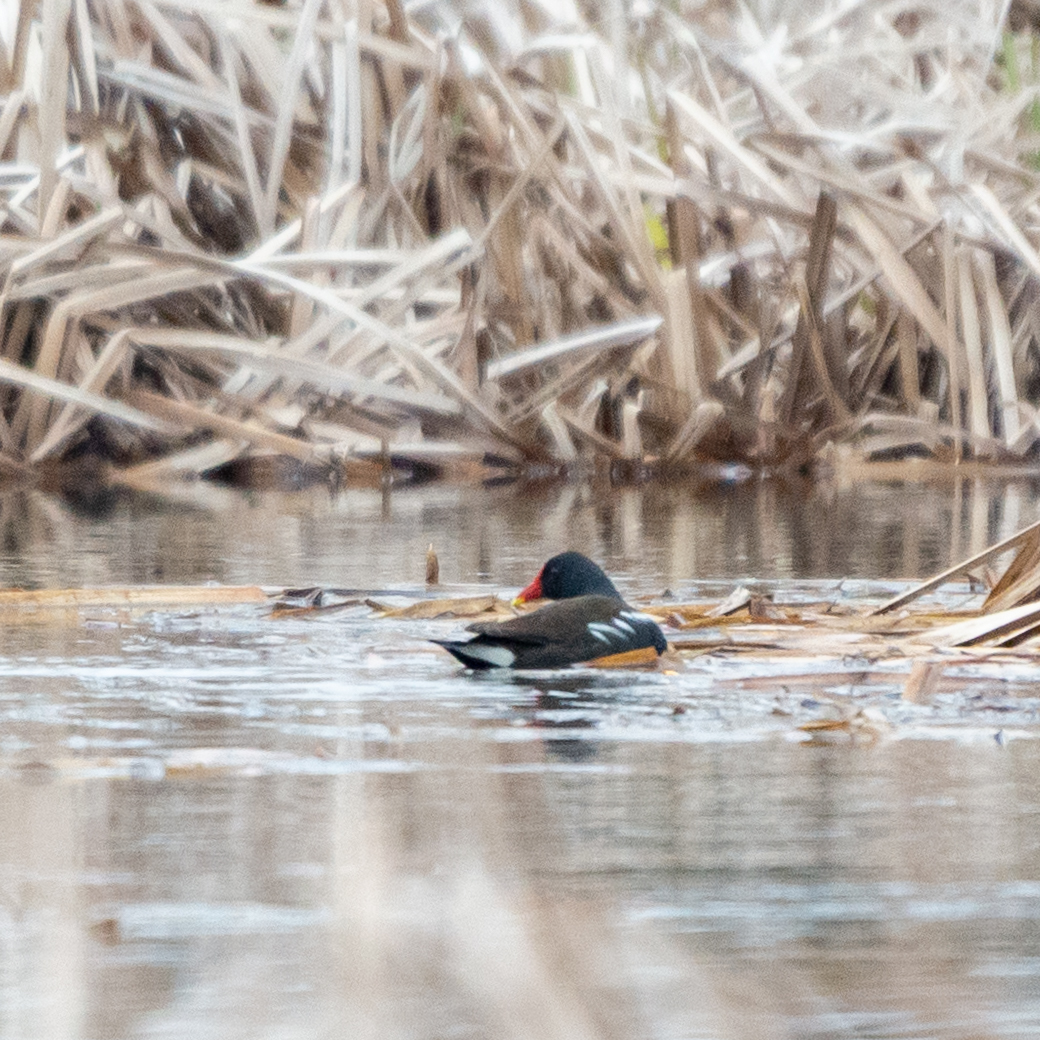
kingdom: Animalia
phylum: Chordata
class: Aves
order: Gruiformes
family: Rallidae
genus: Gallinula
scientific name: Gallinula chloropus
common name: Common moorhen
